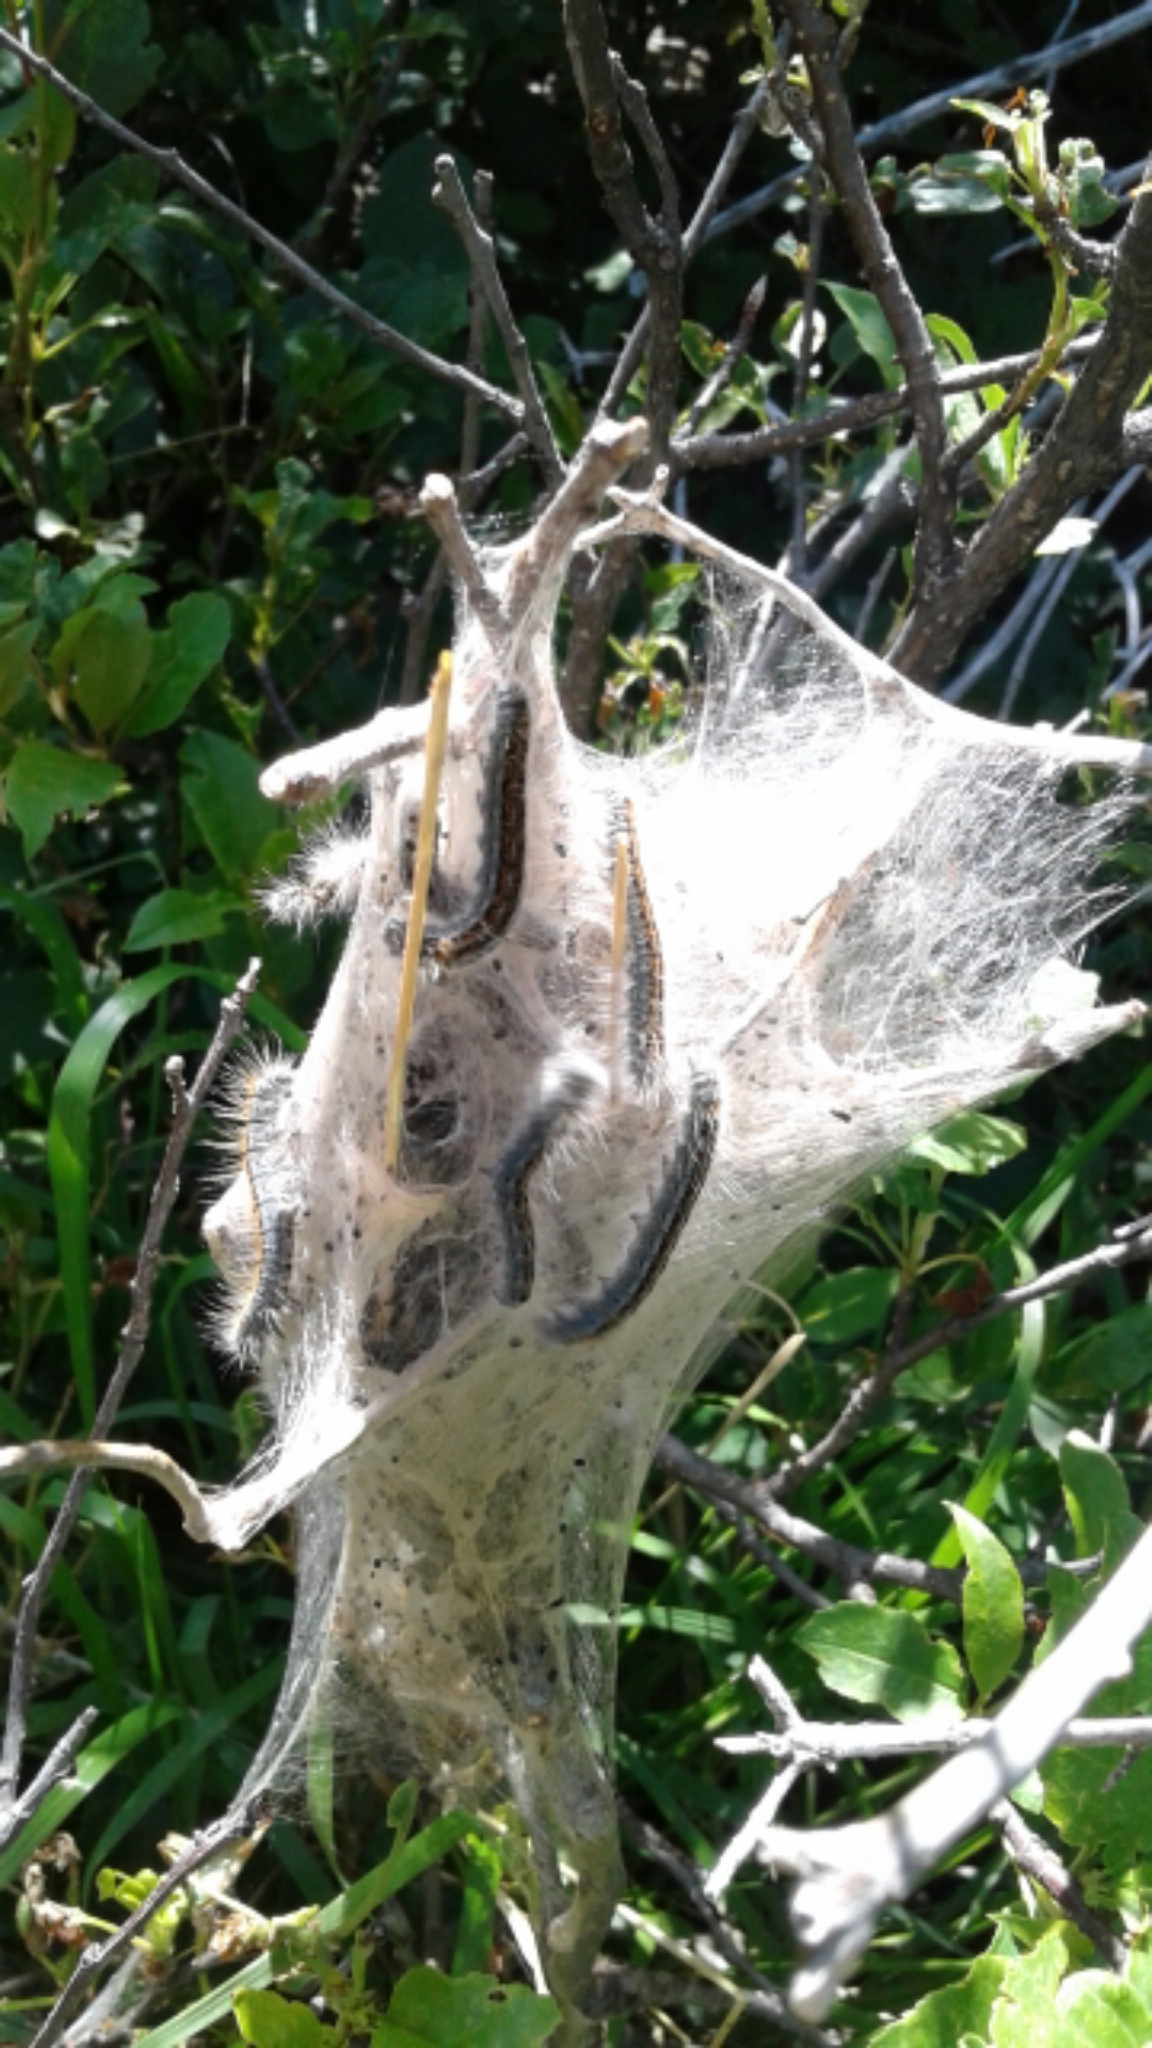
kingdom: Animalia
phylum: Arthropoda
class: Insecta
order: Lepidoptera
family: Lasiocampidae
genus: Malacosoma
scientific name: Malacosoma californica
